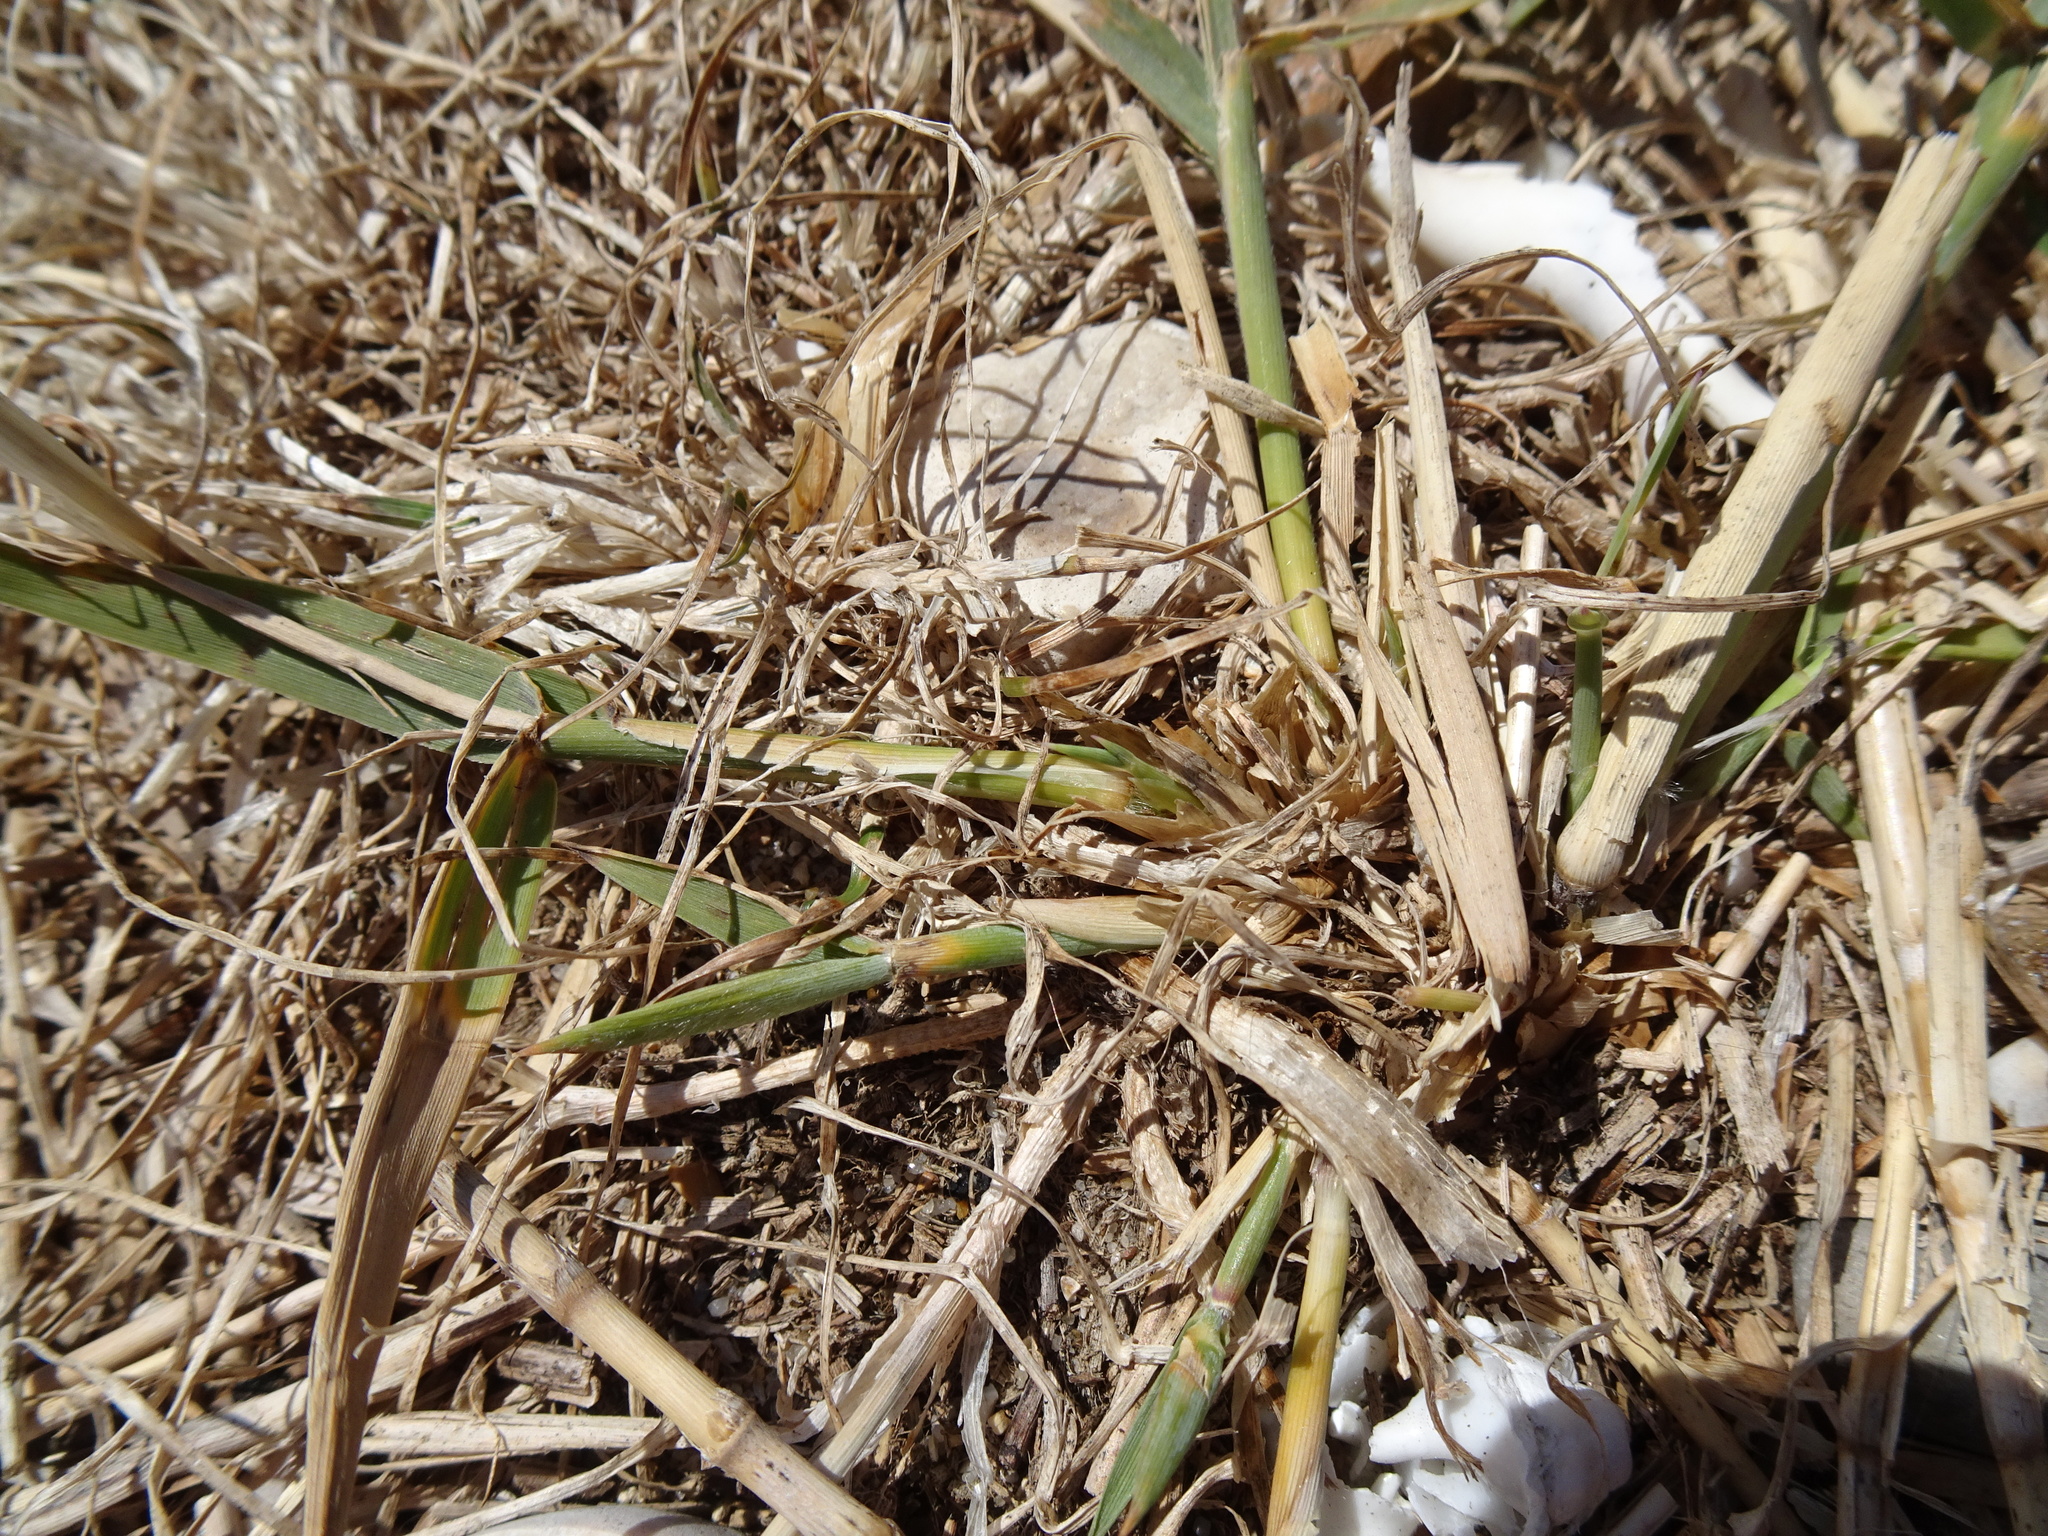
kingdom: Plantae
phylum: Tracheophyta
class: Liliopsida
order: Poales
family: Poaceae
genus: Phragmites
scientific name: Phragmites australis
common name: Common reed
